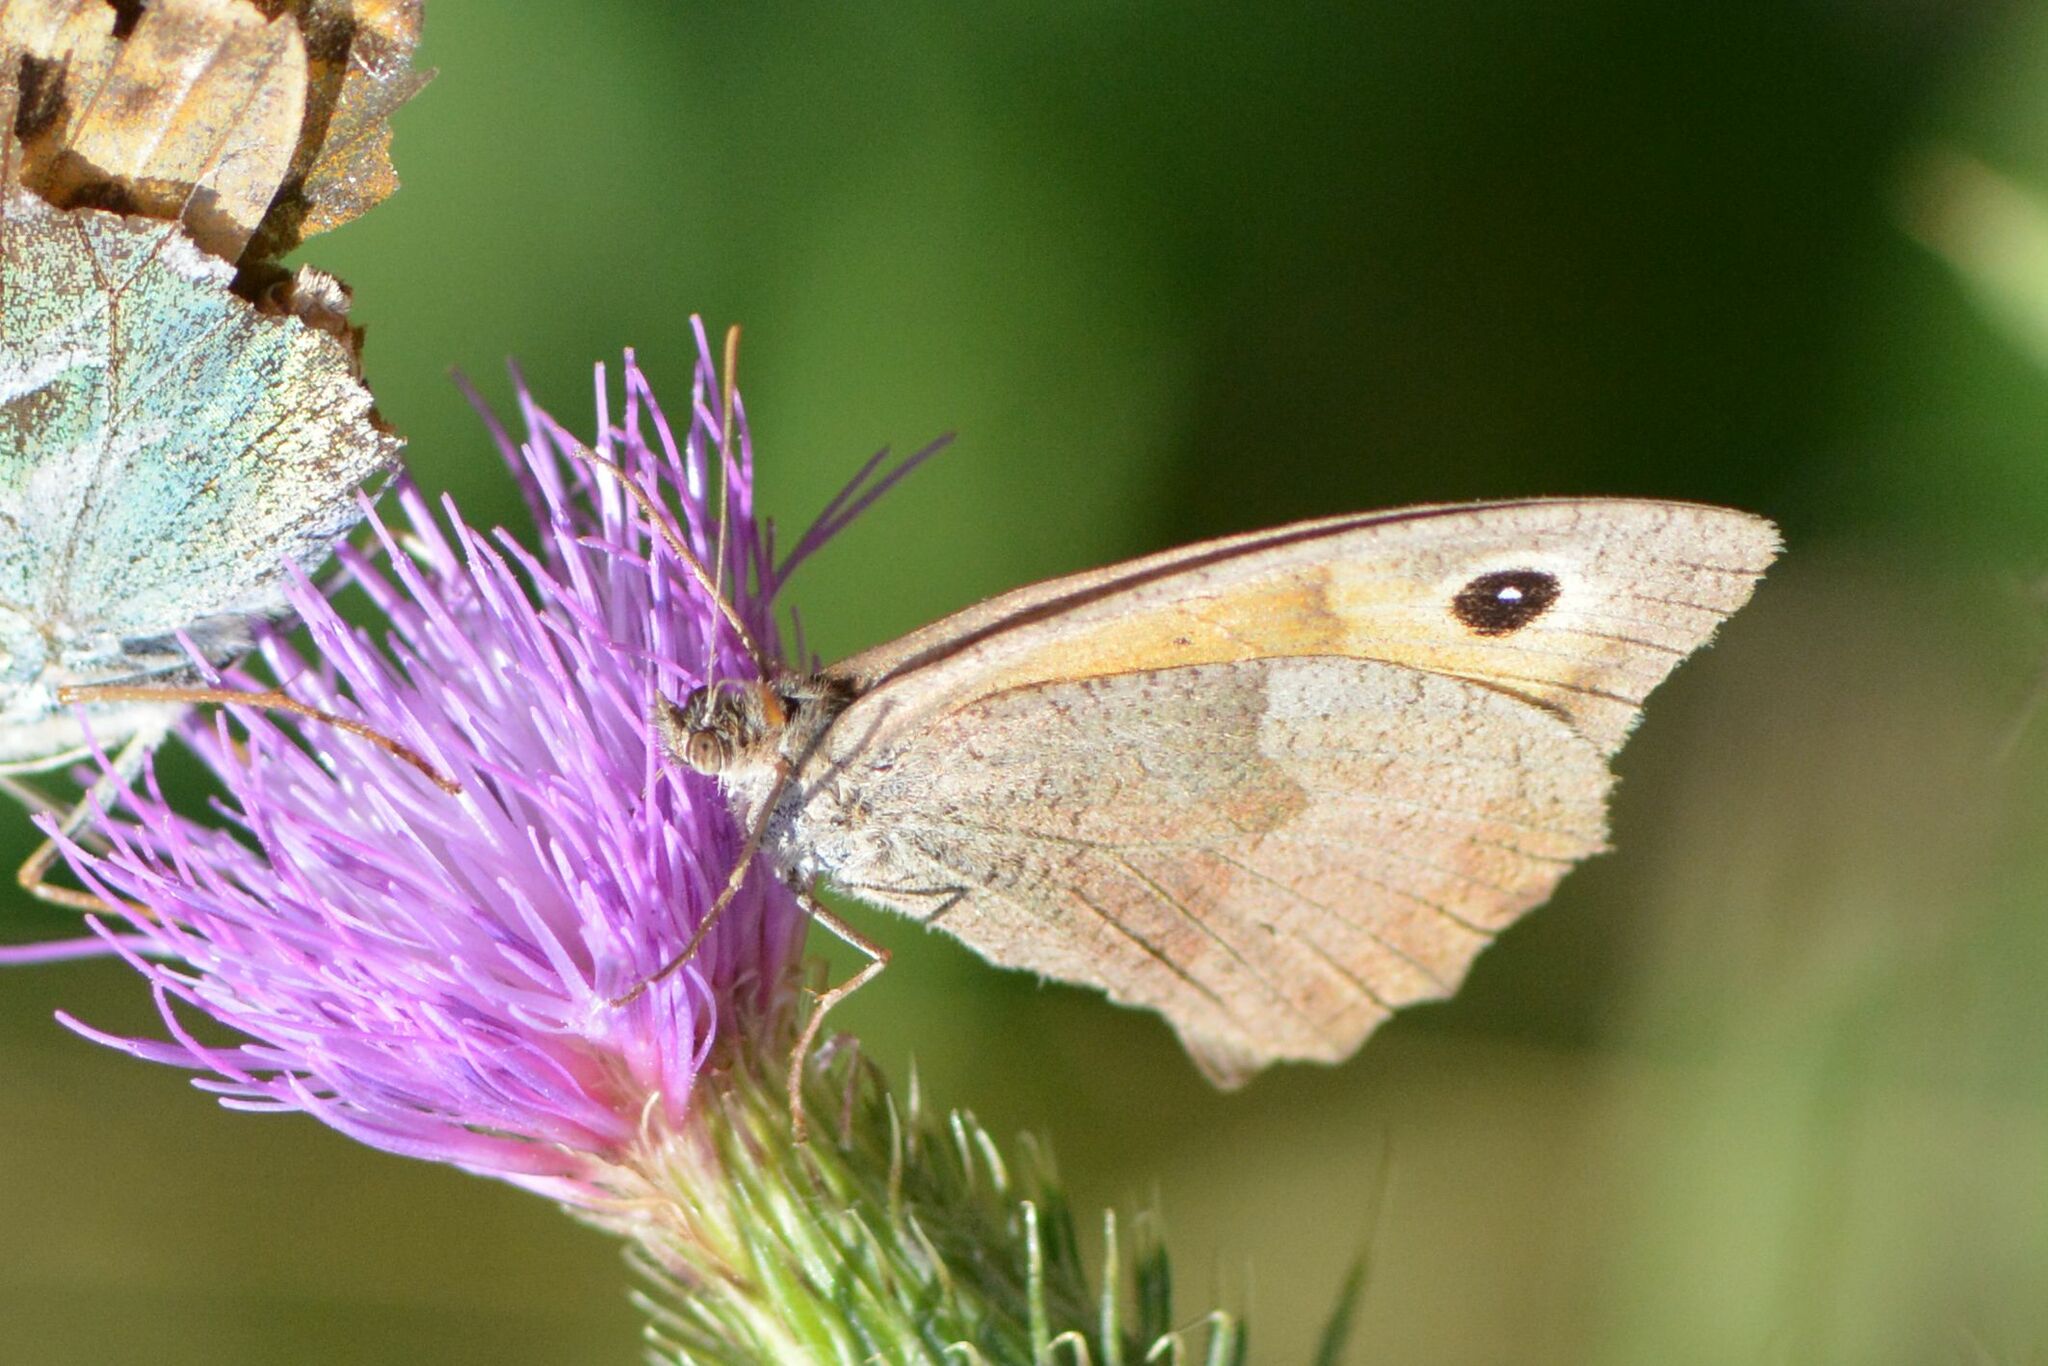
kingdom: Animalia
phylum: Arthropoda
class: Insecta
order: Lepidoptera
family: Nymphalidae
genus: Maniola
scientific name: Maniola jurtina
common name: Meadow brown
